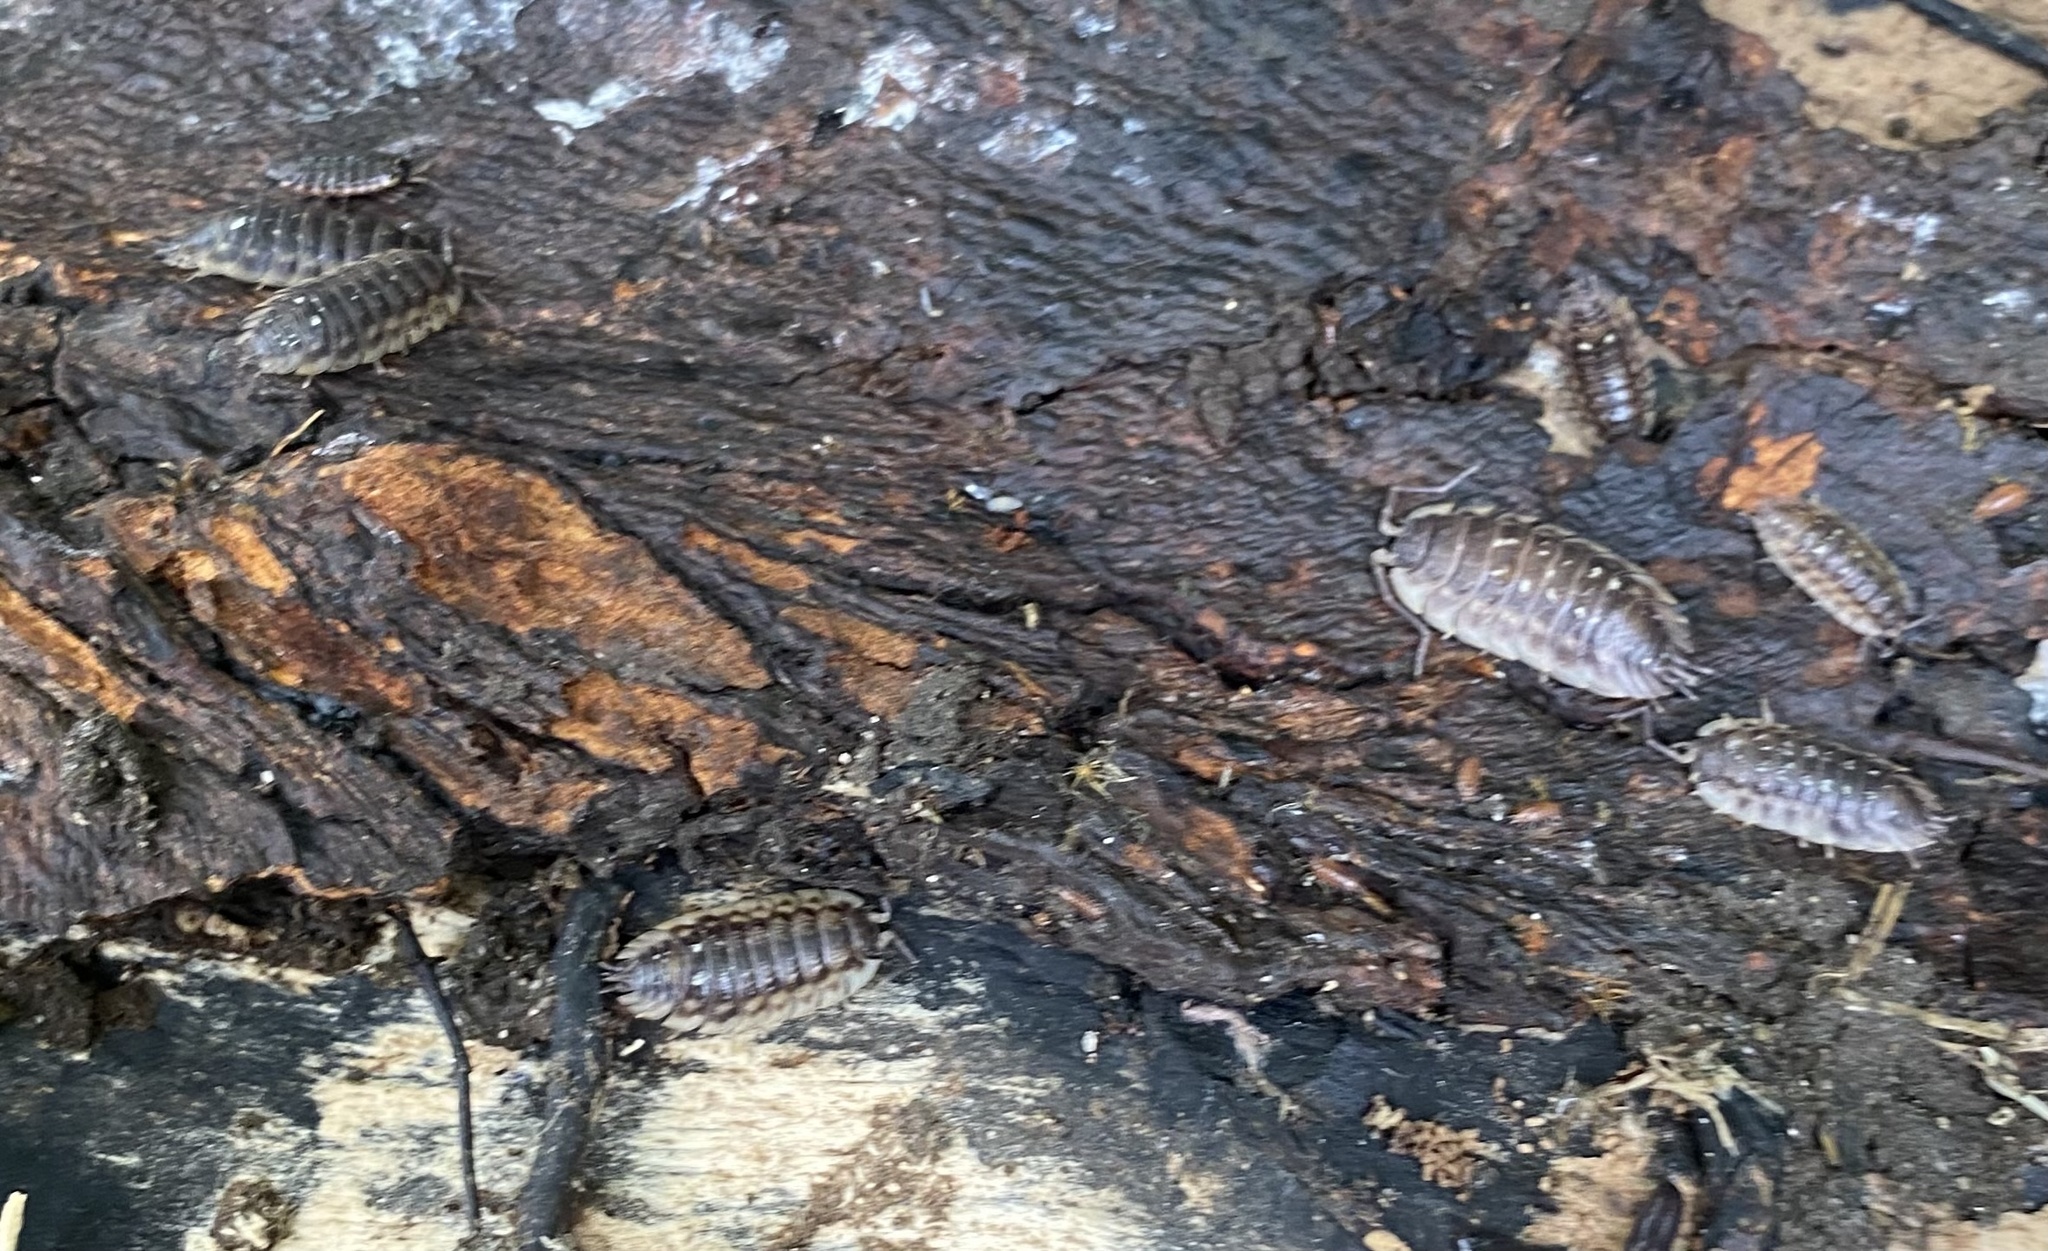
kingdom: Animalia
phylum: Arthropoda
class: Malacostraca
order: Isopoda
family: Oniscidae
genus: Oniscus
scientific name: Oniscus asellus
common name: Common shiny woodlouse
